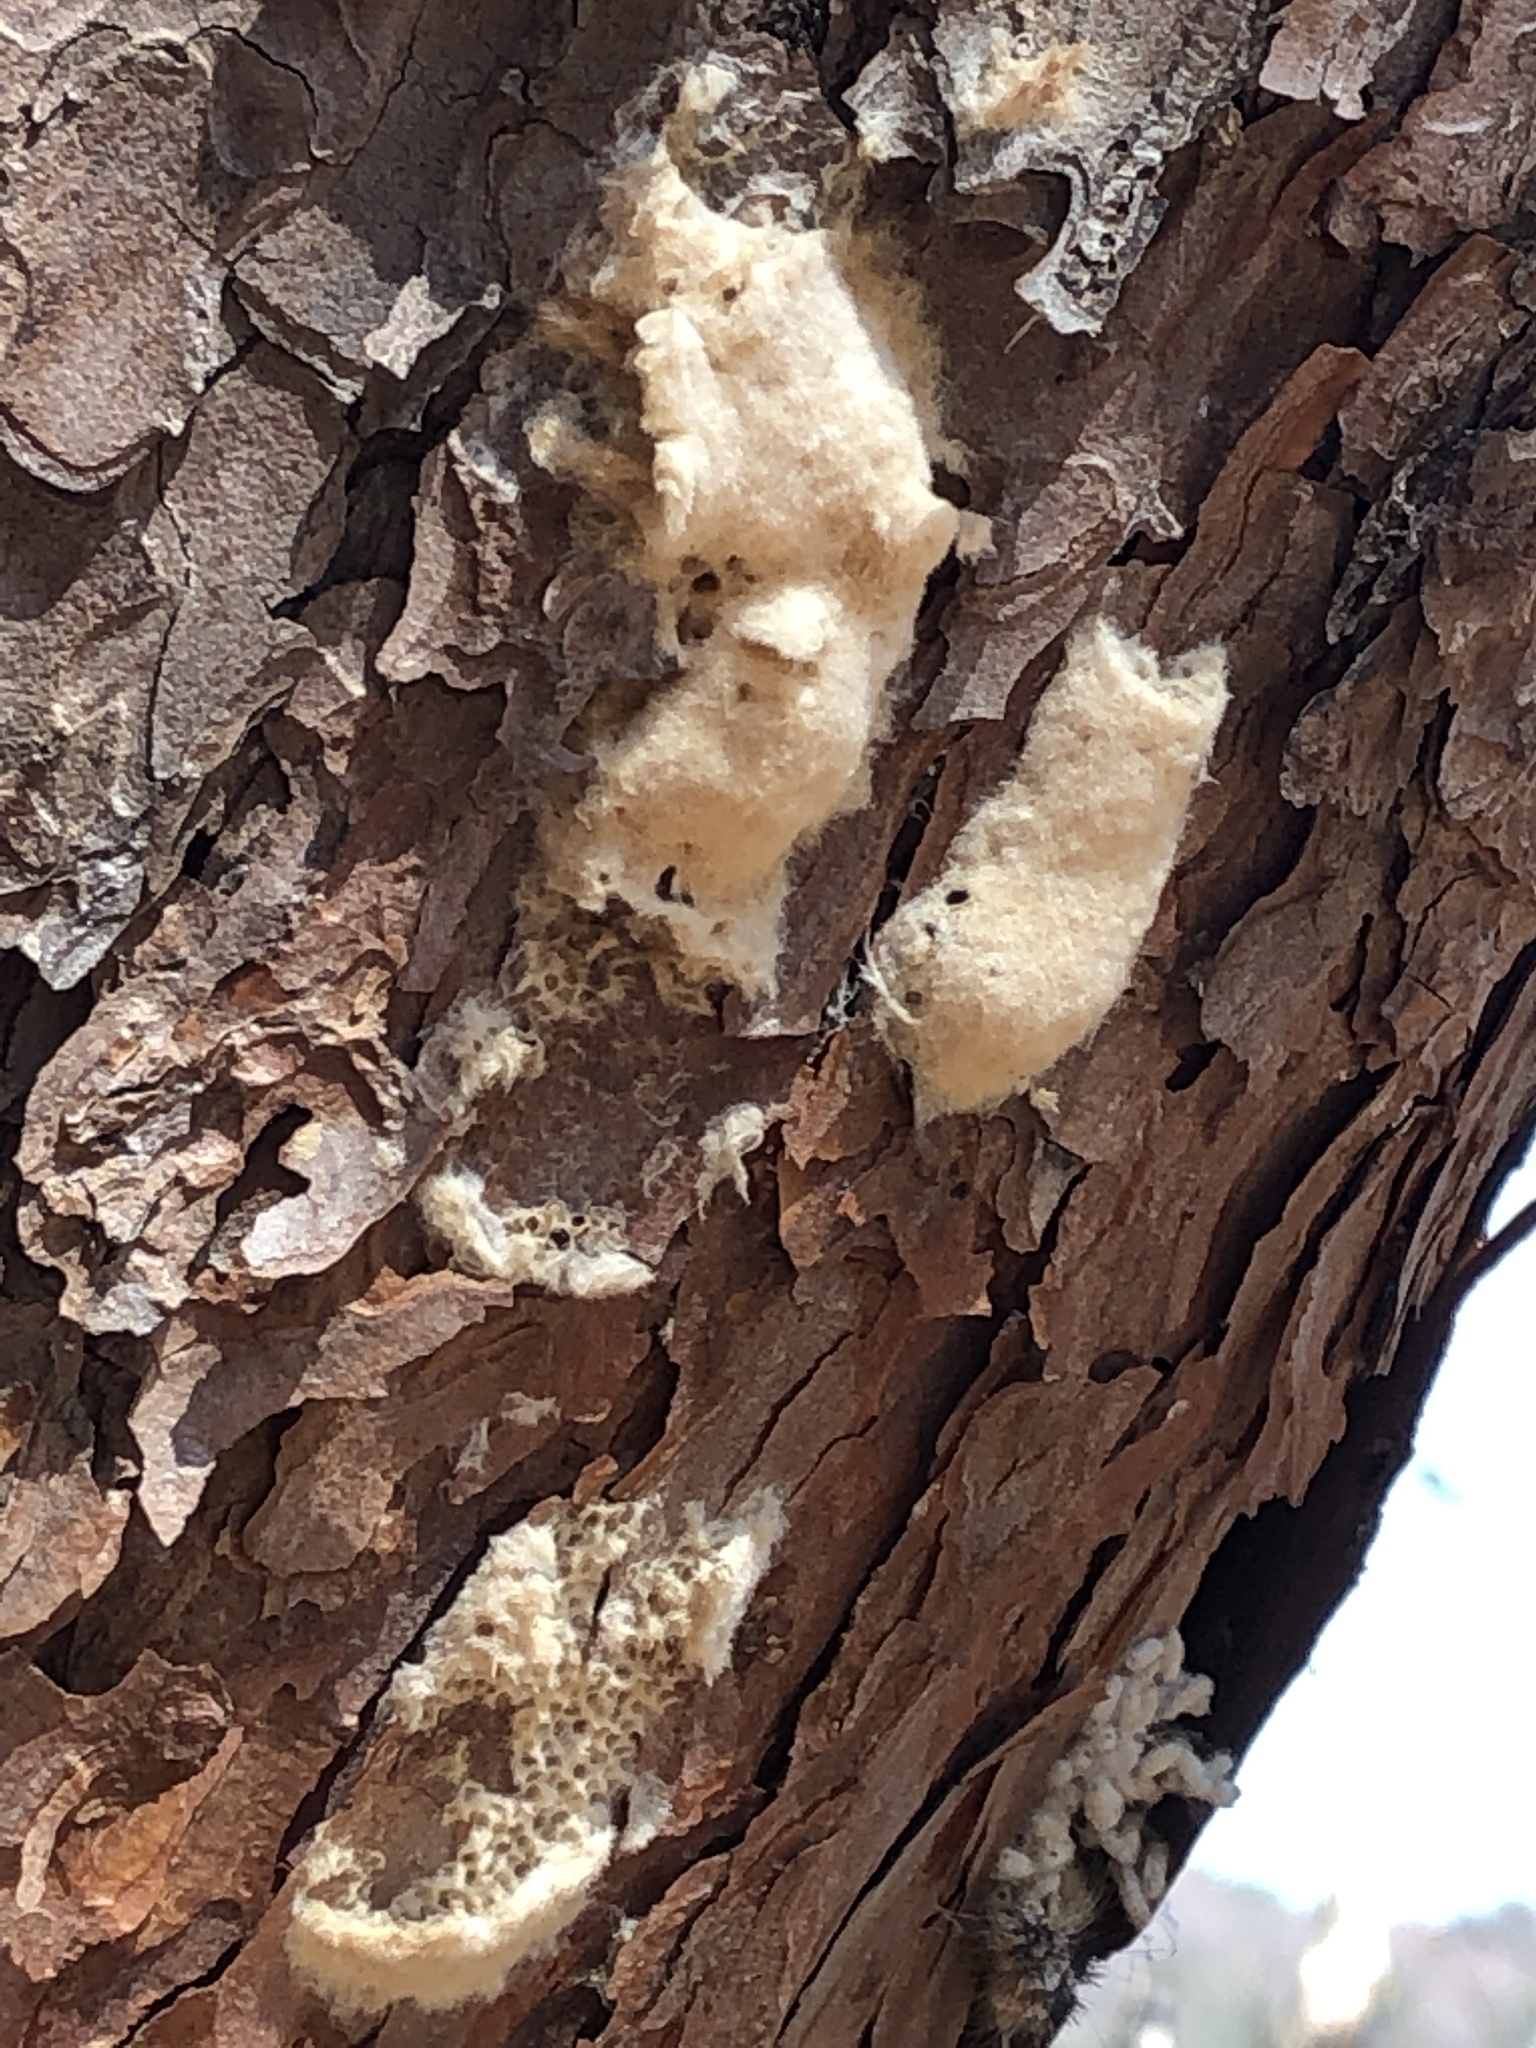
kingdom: Animalia
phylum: Arthropoda
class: Insecta
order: Lepidoptera
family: Erebidae
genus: Lymantria
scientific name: Lymantria dispar
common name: Gypsy moth
